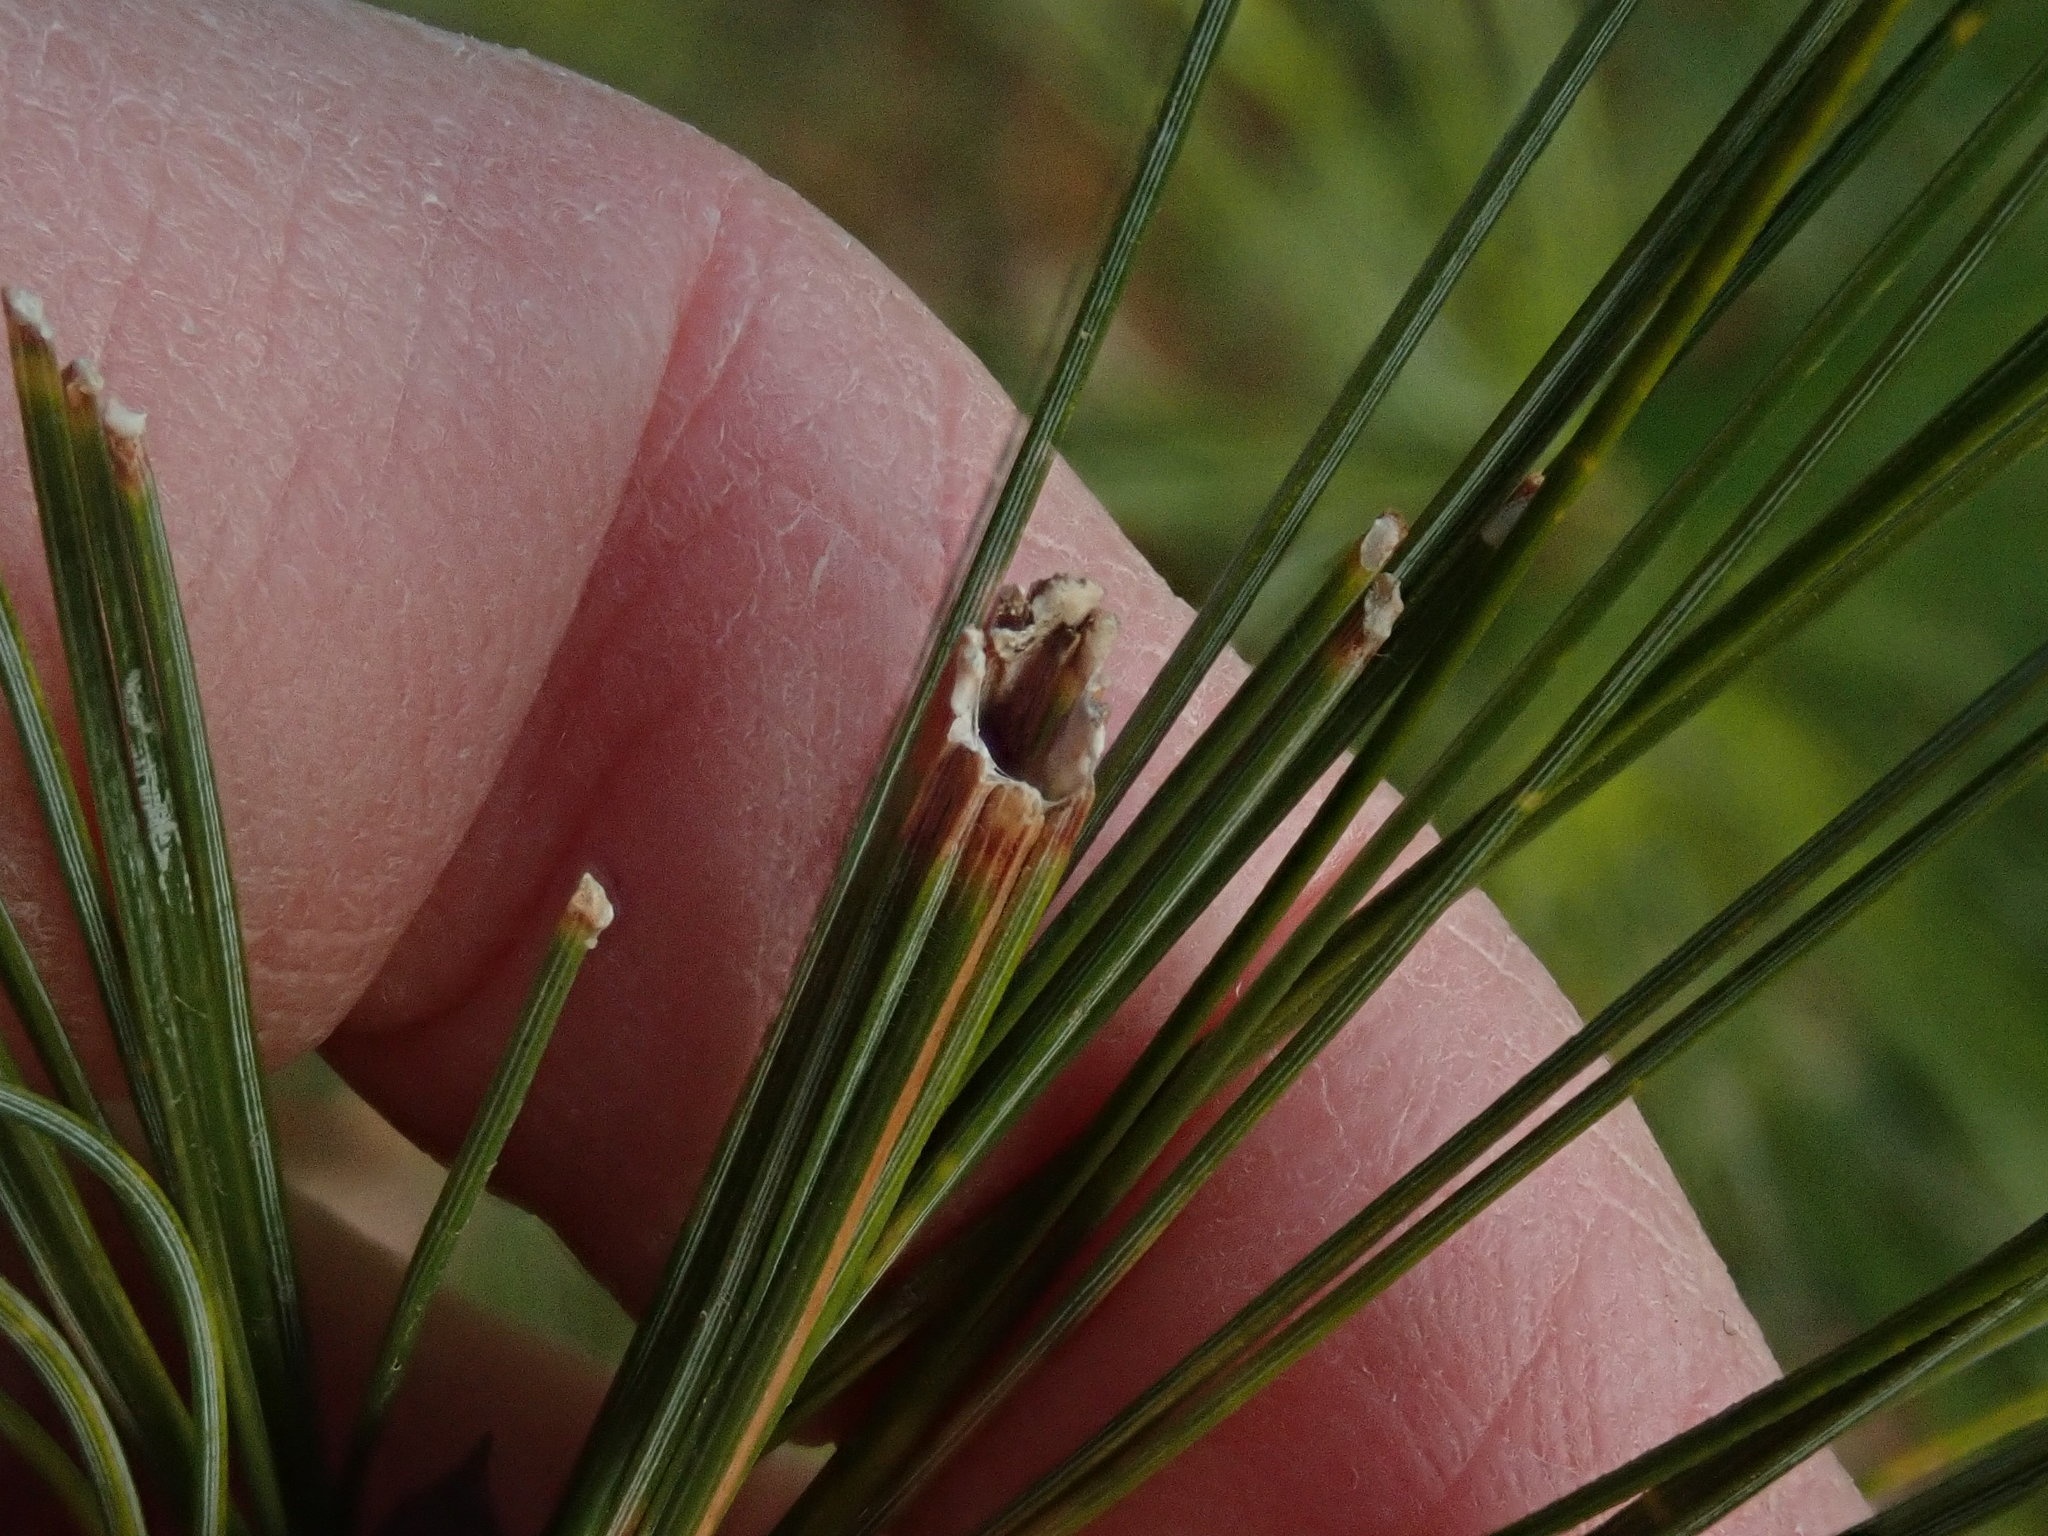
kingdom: Animalia
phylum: Arthropoda
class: Insecta
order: Lepidoptera
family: Tortricidae
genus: Argyrotaenia
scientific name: Argyrotaenia pinatubana
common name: Pine tube moth
